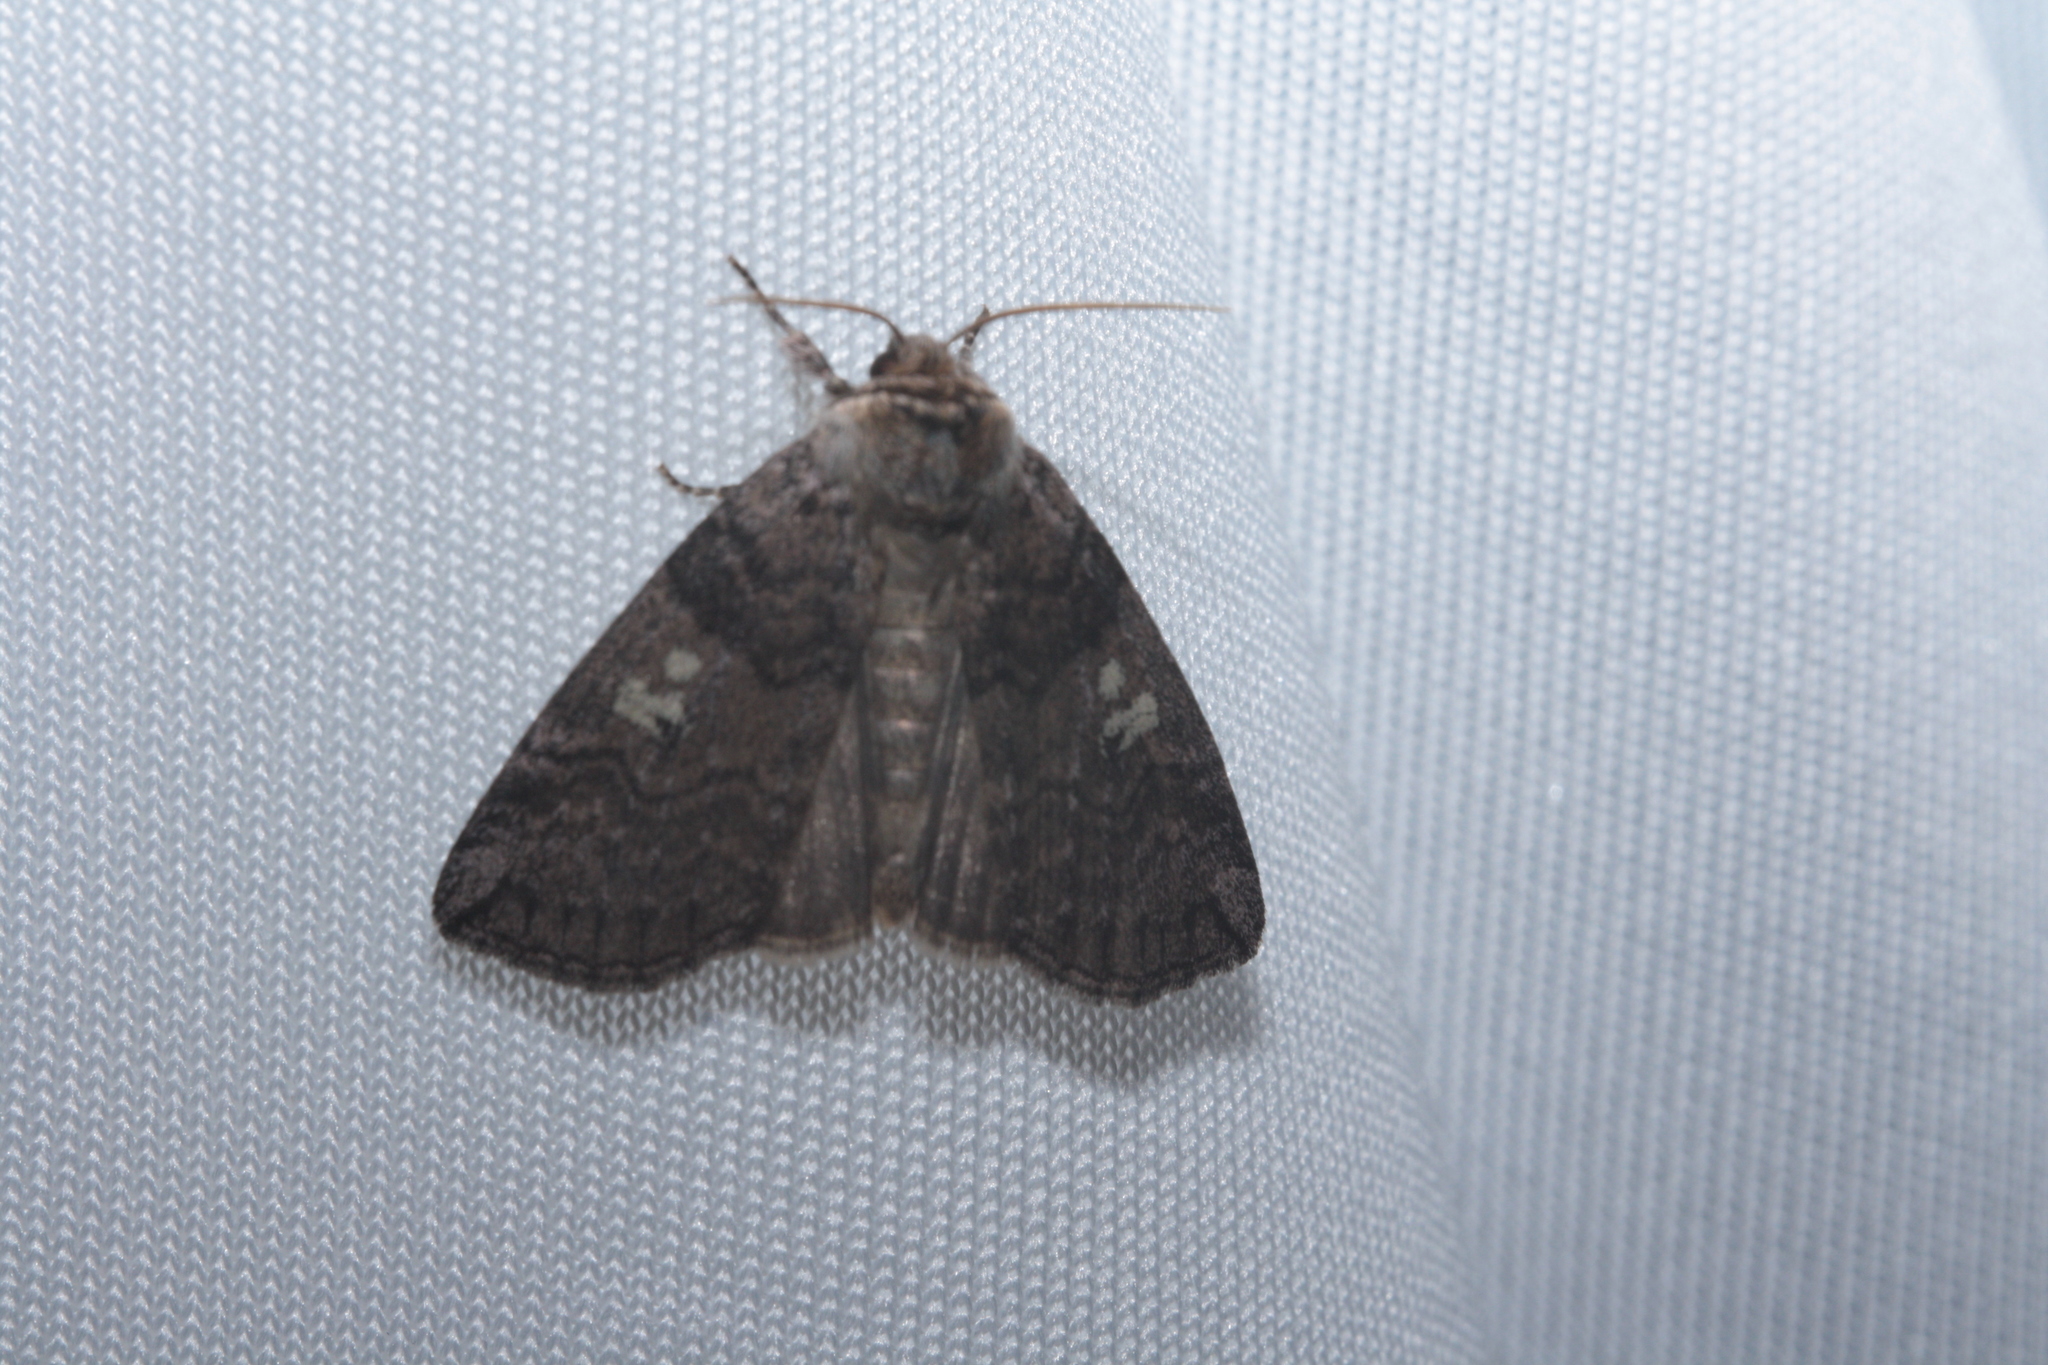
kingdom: Animalia
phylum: Arthropoda
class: Insecta
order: Lepidoptera
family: Drepanidae
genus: Tethea
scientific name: Tethea or
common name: Poplar lutestring
